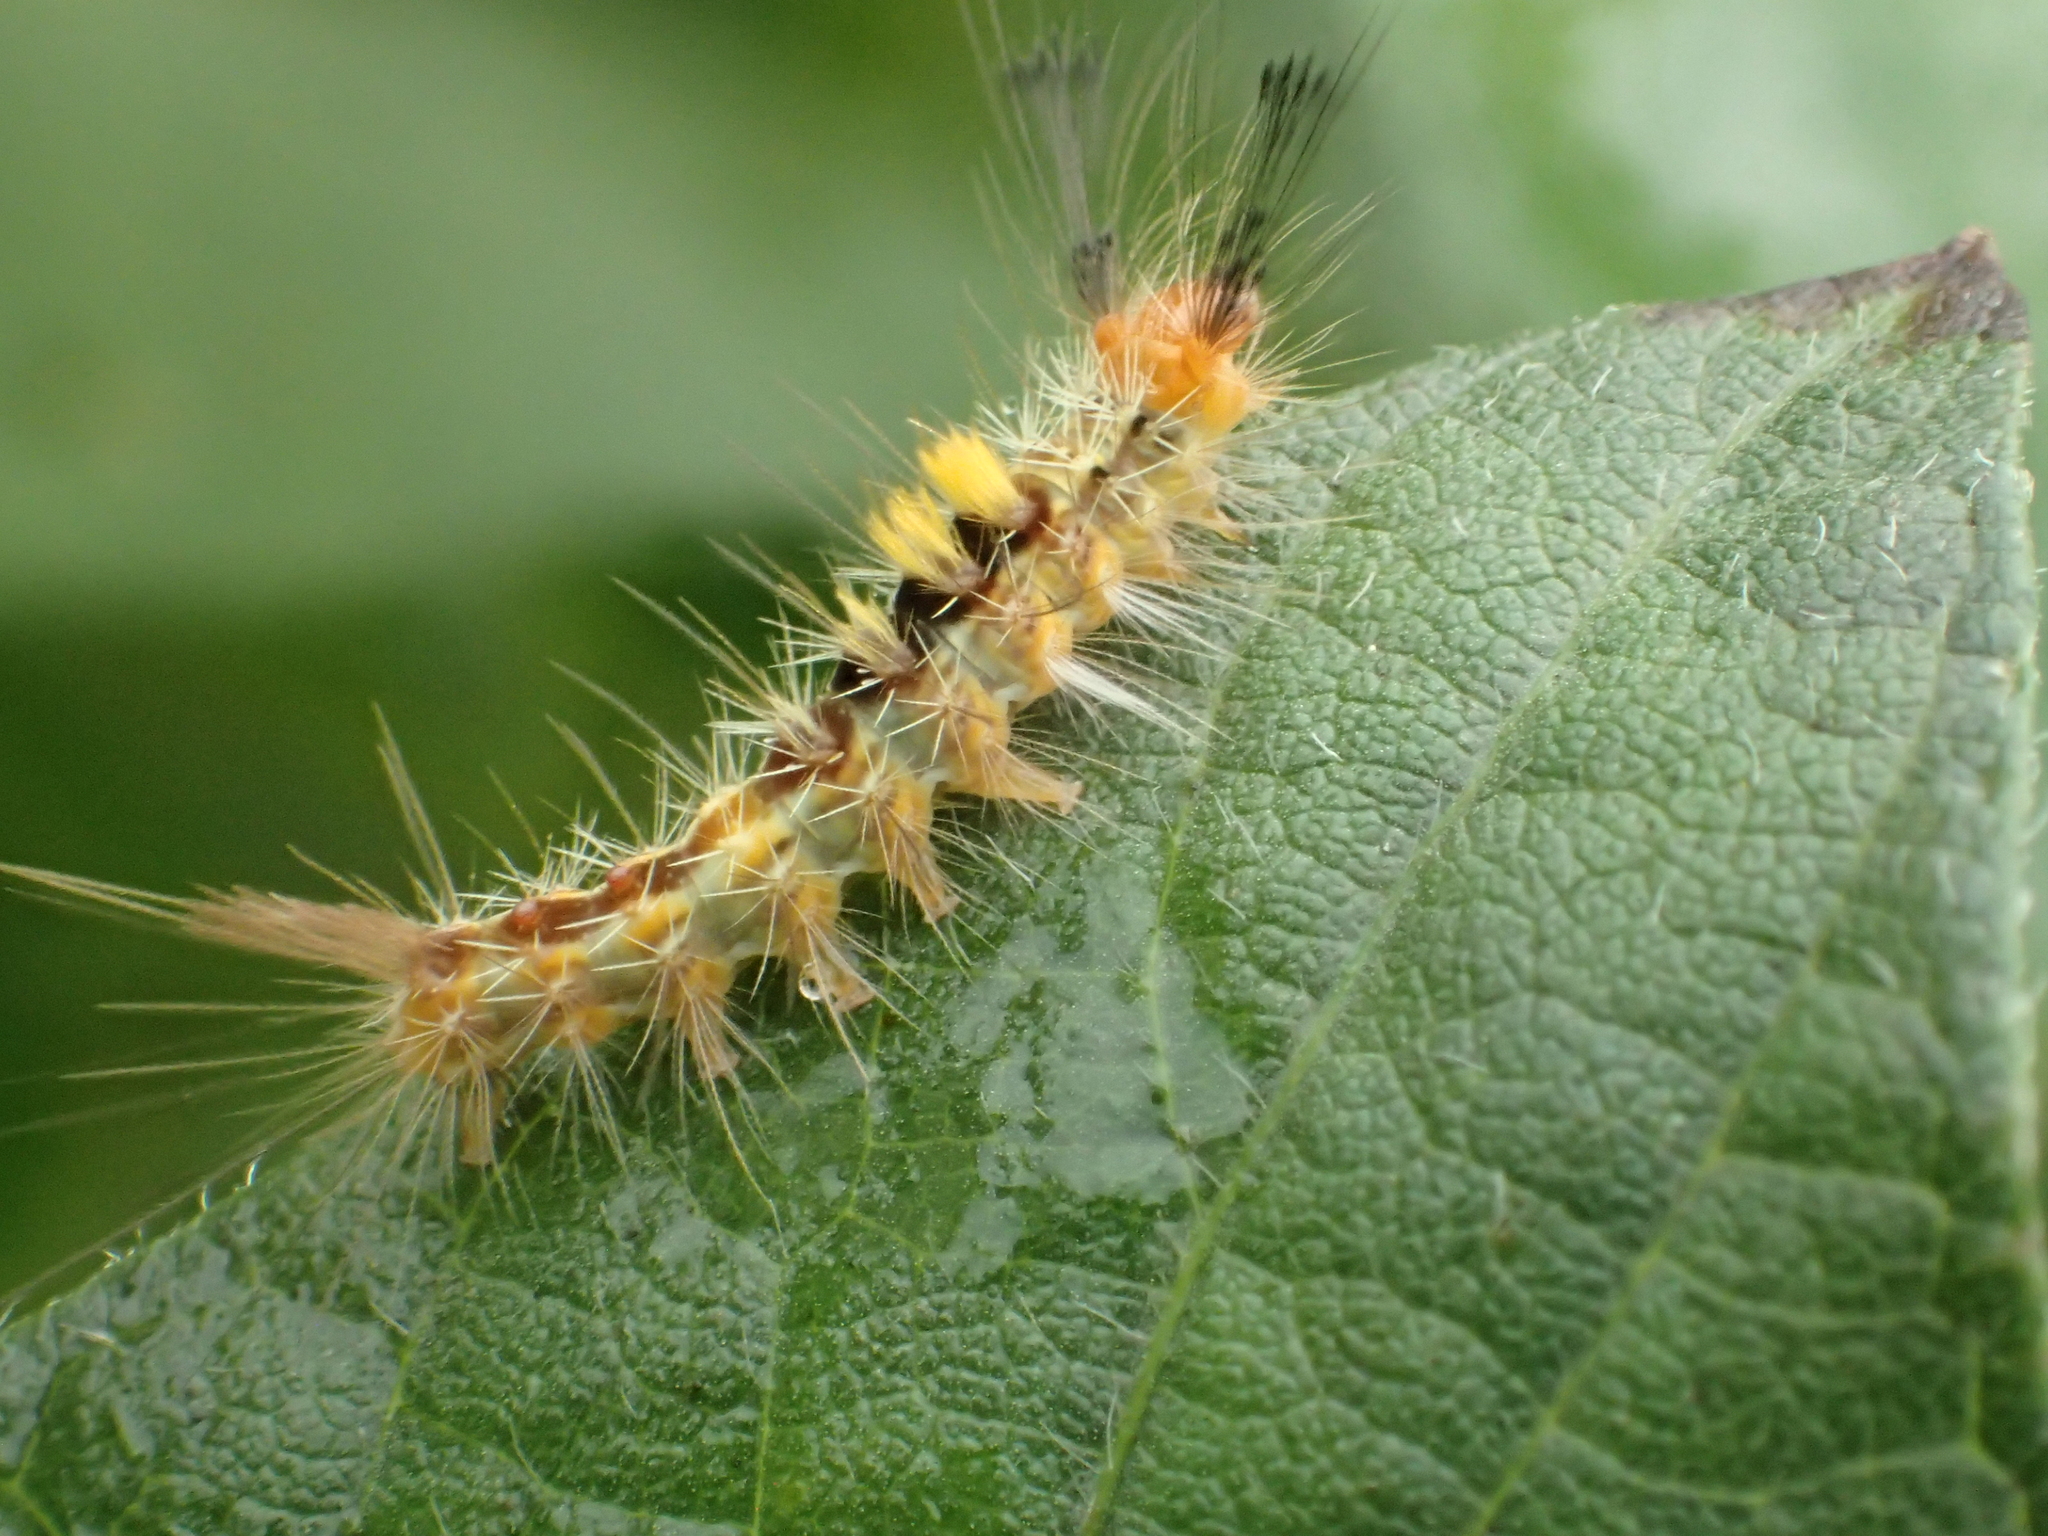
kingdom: Animalia
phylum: Arthropoda
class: Insecta
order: Lepidoptera
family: Erebidae
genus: Orgyia
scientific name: Orgyia postica
